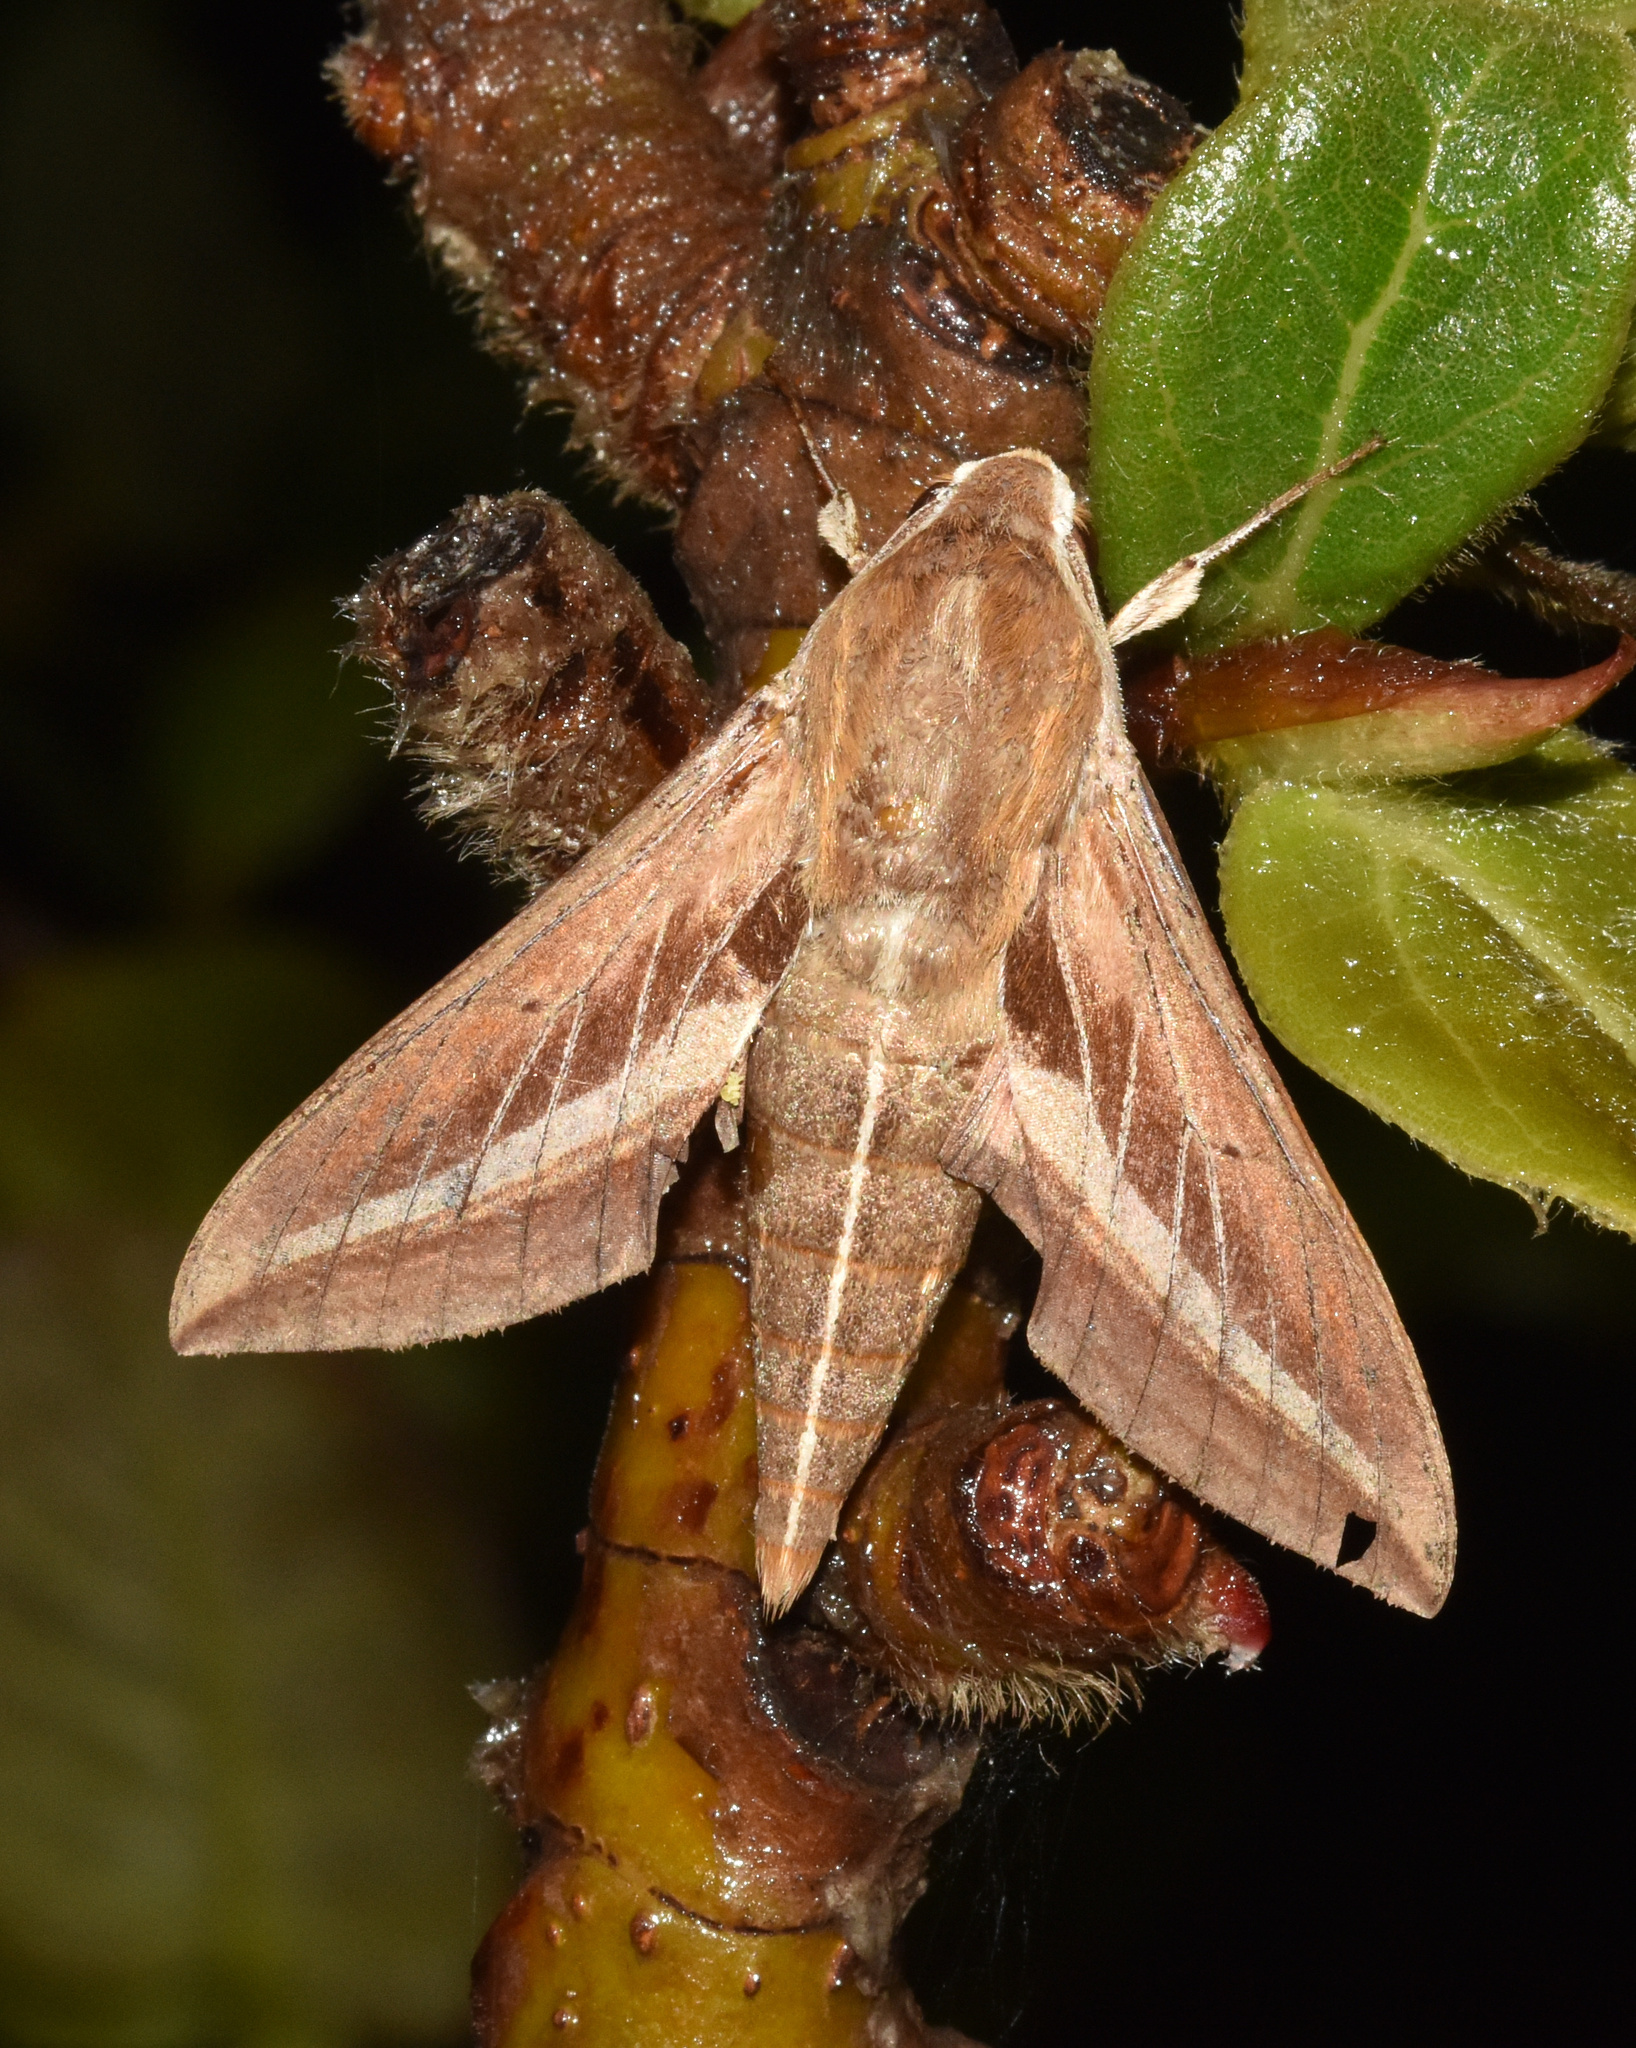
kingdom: Animalia
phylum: Arthropoda
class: Insecta
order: Lepidoptera
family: Sphingidae
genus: Basiothia
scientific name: Basiothia schenki
